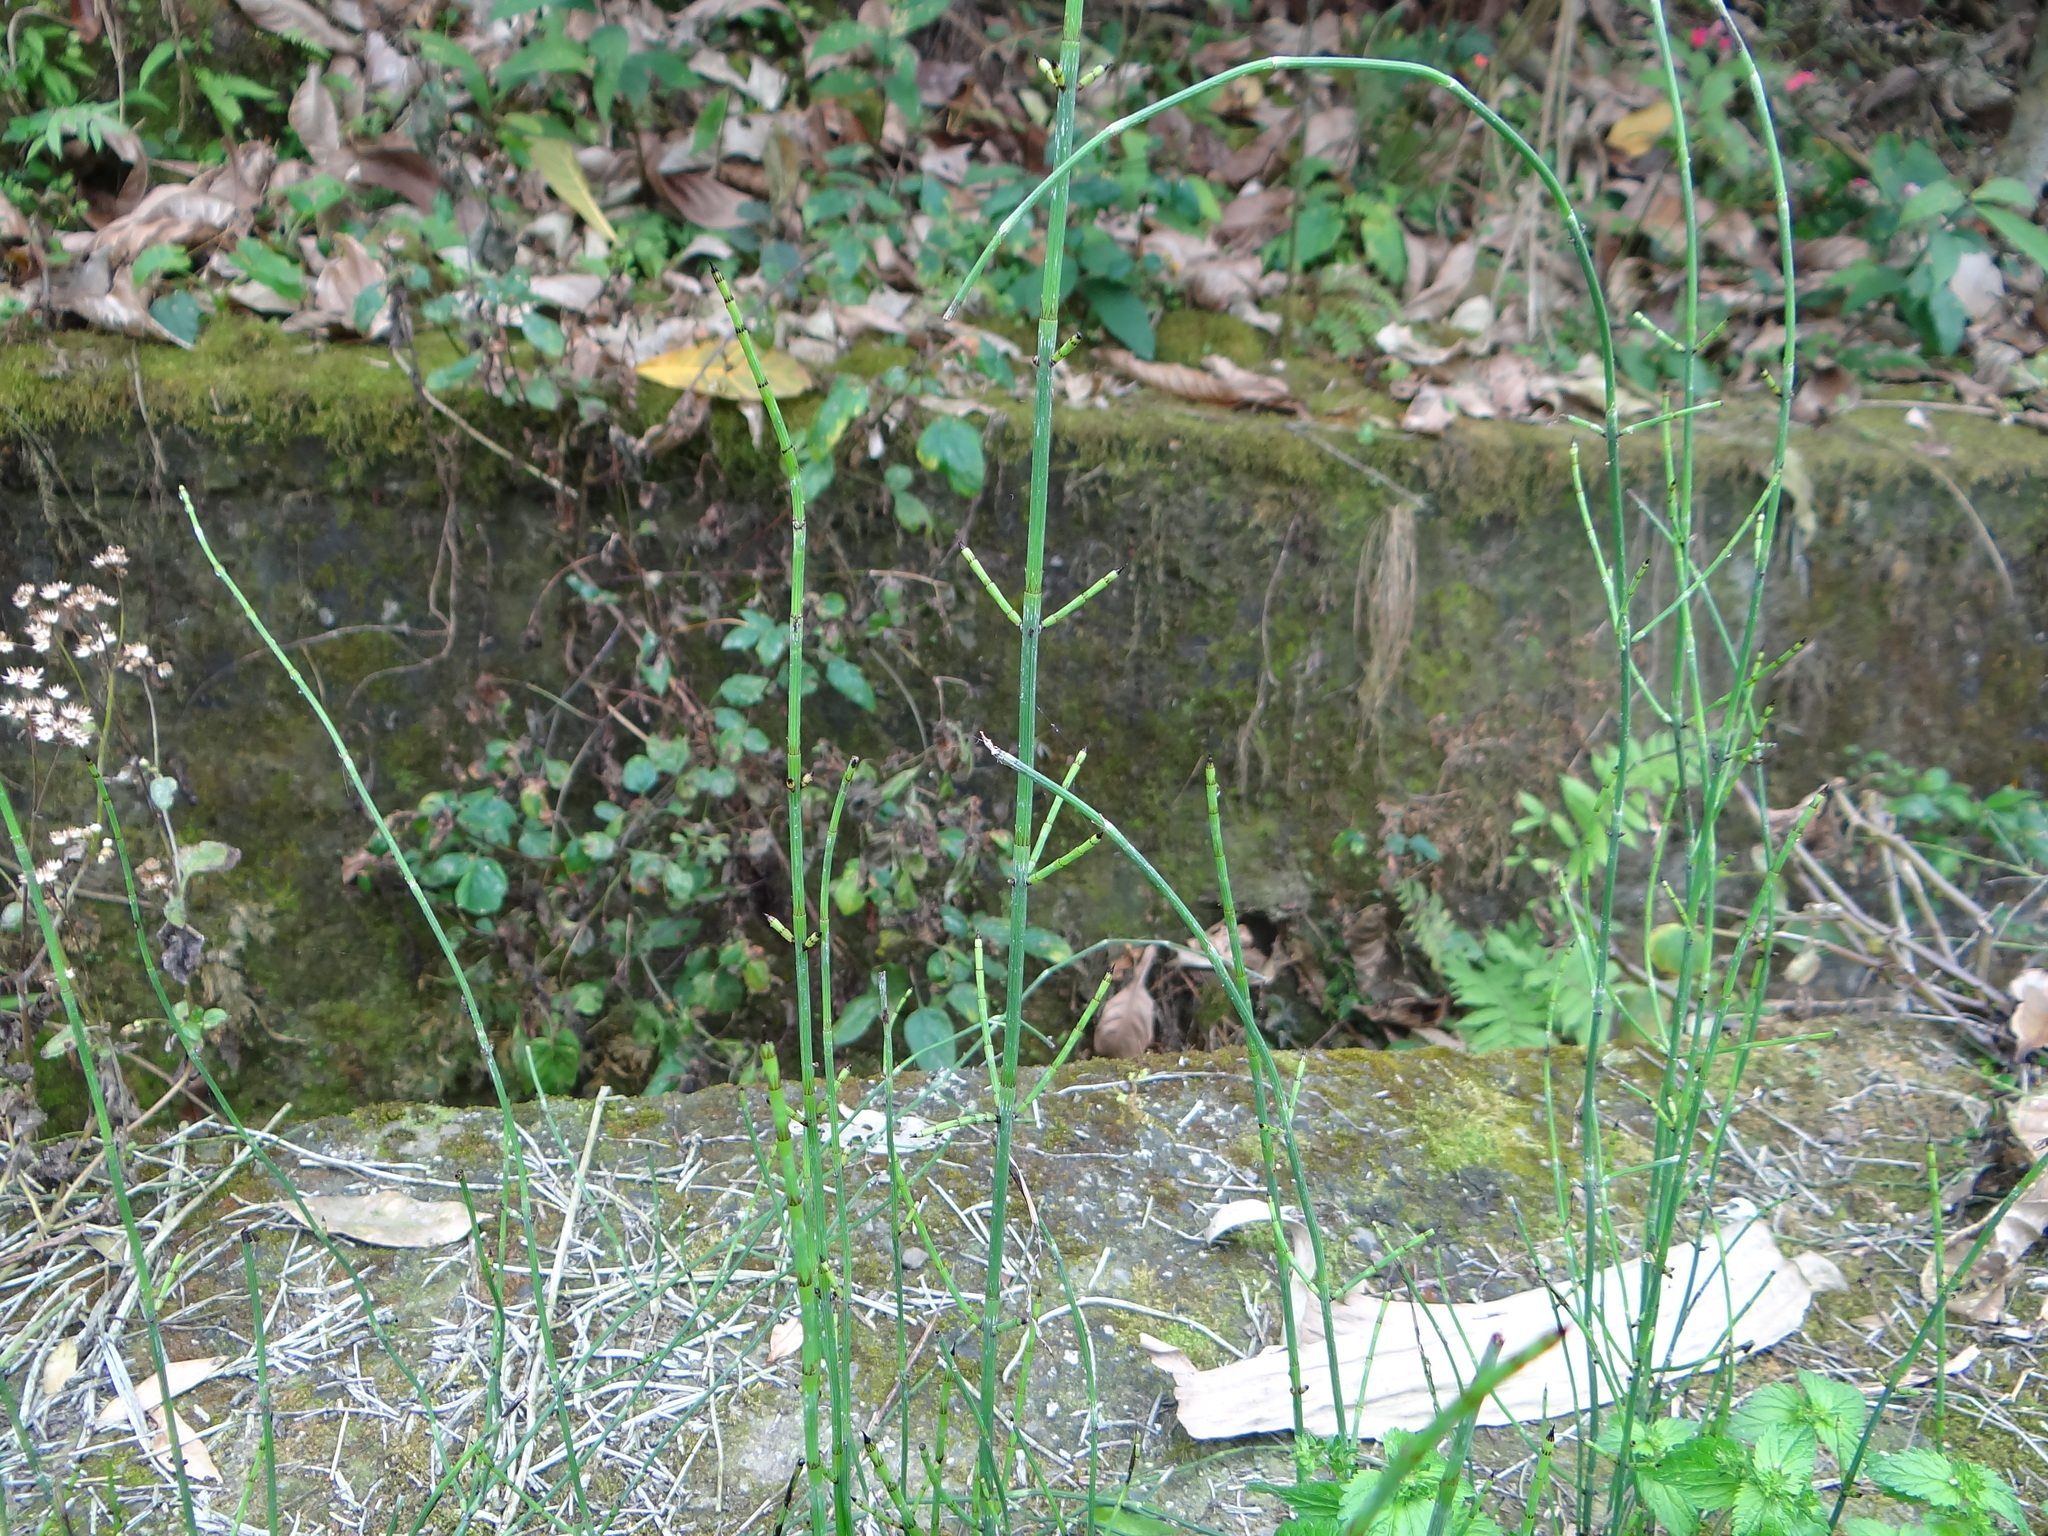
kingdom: Plantae
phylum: Tracheophyta
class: Polypodiopsida
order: Equisetales
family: Equisetaceae
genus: Equisetum
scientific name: Equisetum ramosissimum
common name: Branched horsetail
